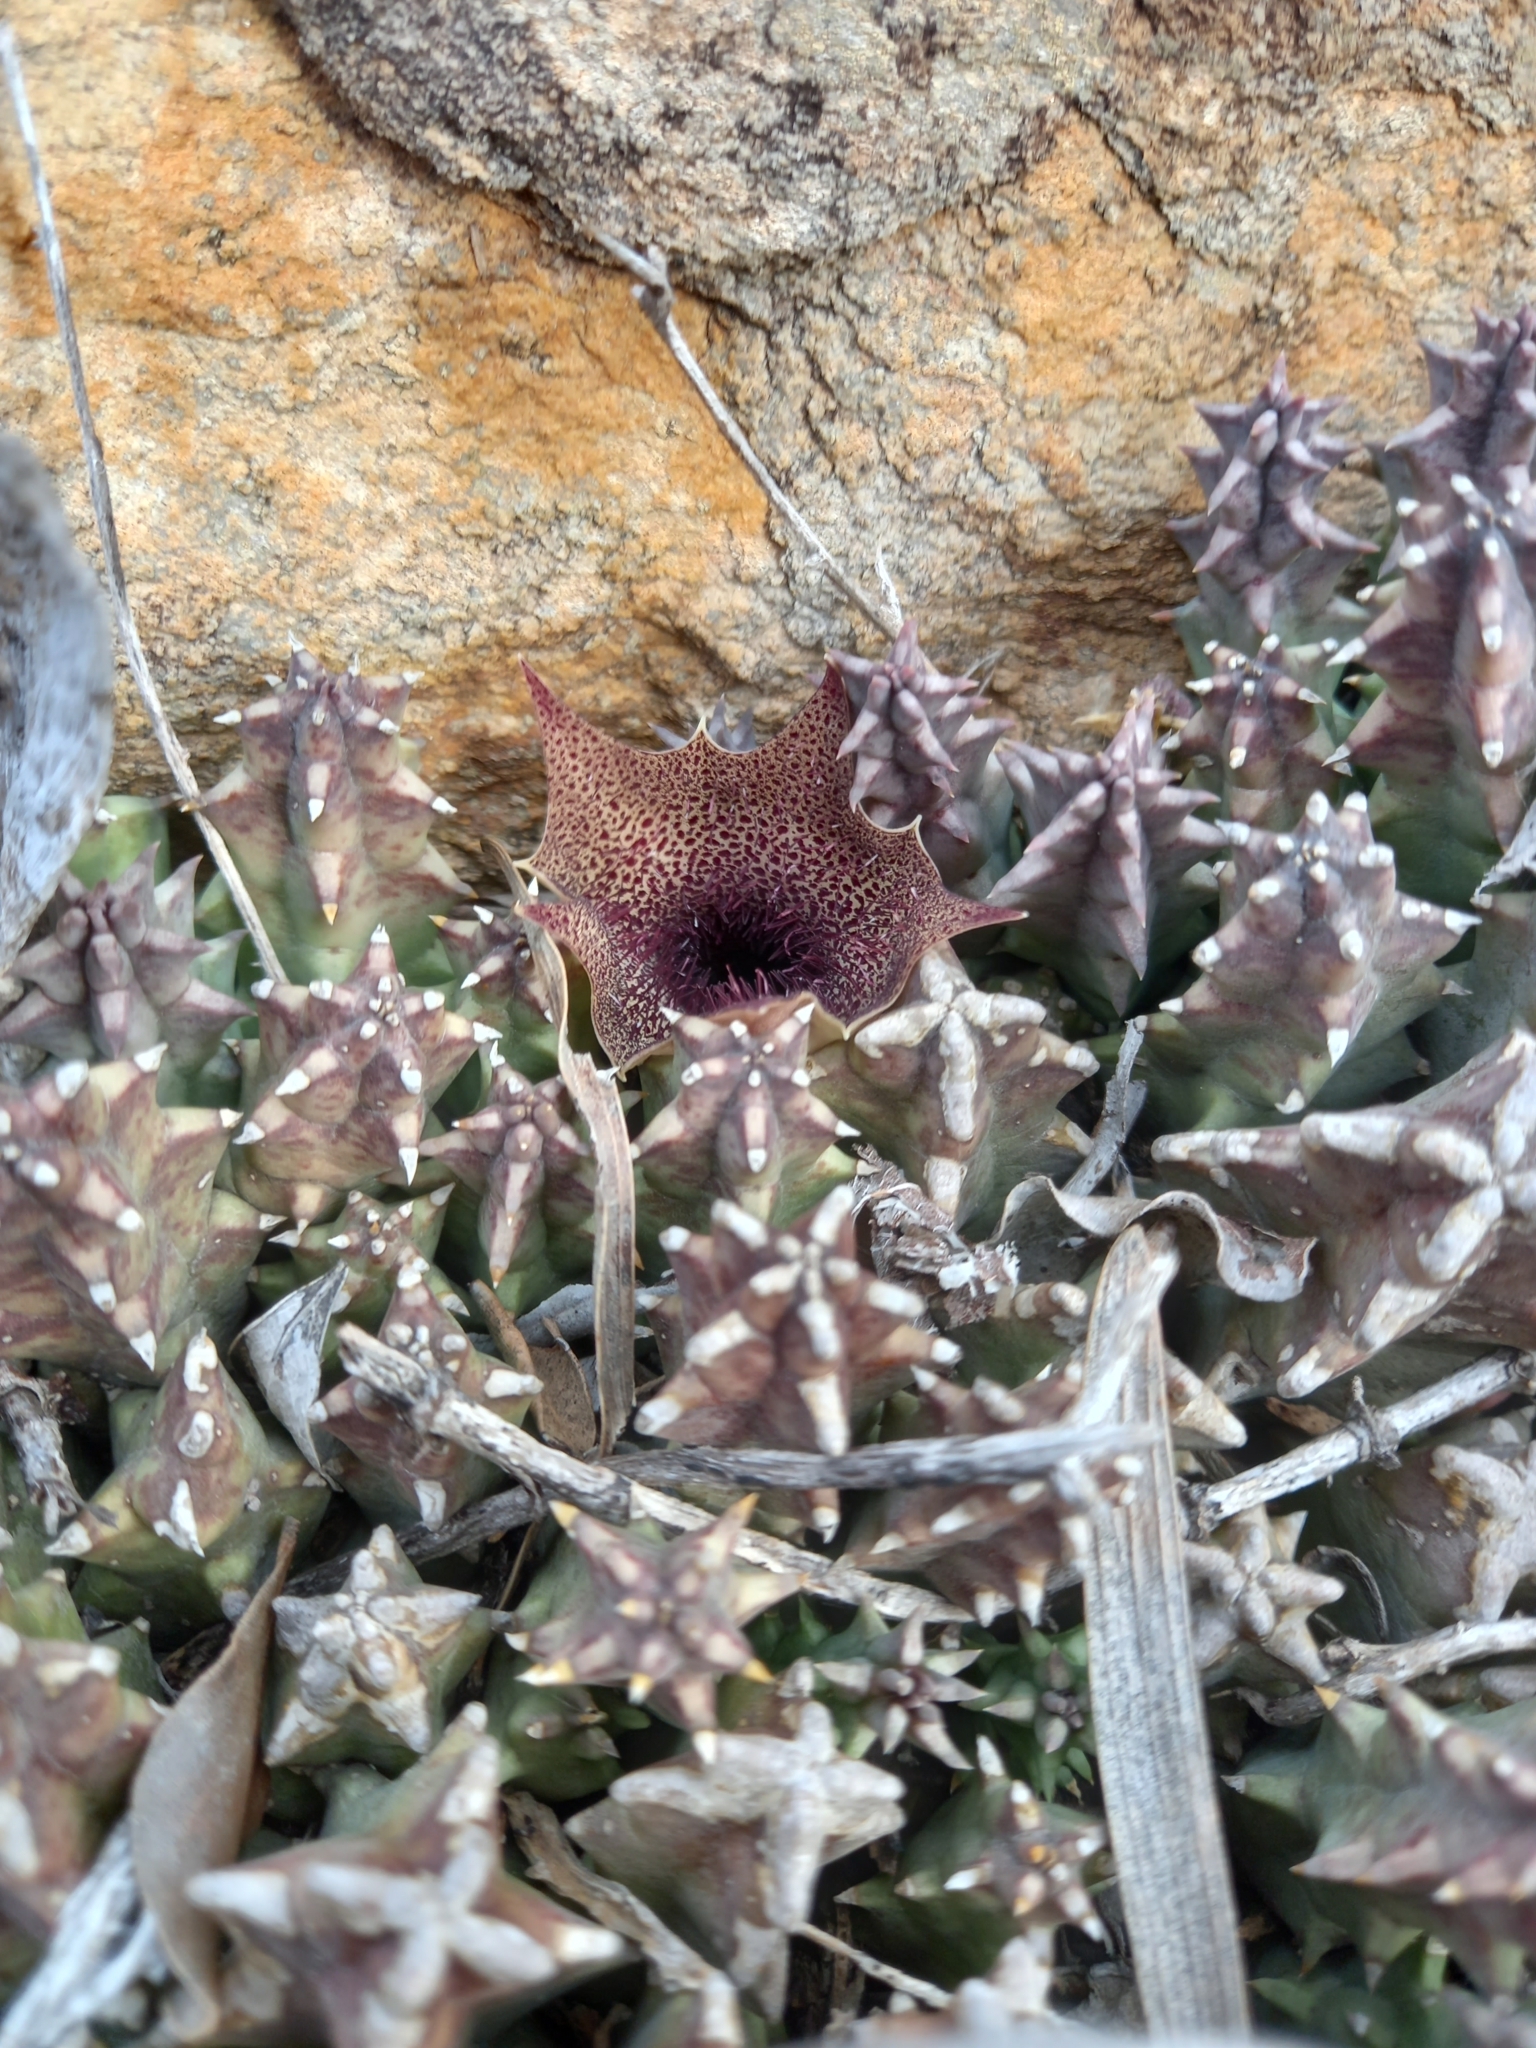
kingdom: Plantae
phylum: Tracheophyta
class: Magnoliopsida
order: Gentianales
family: Apocynaceae
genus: Ceropegia
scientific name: Ceropegia clavigera
